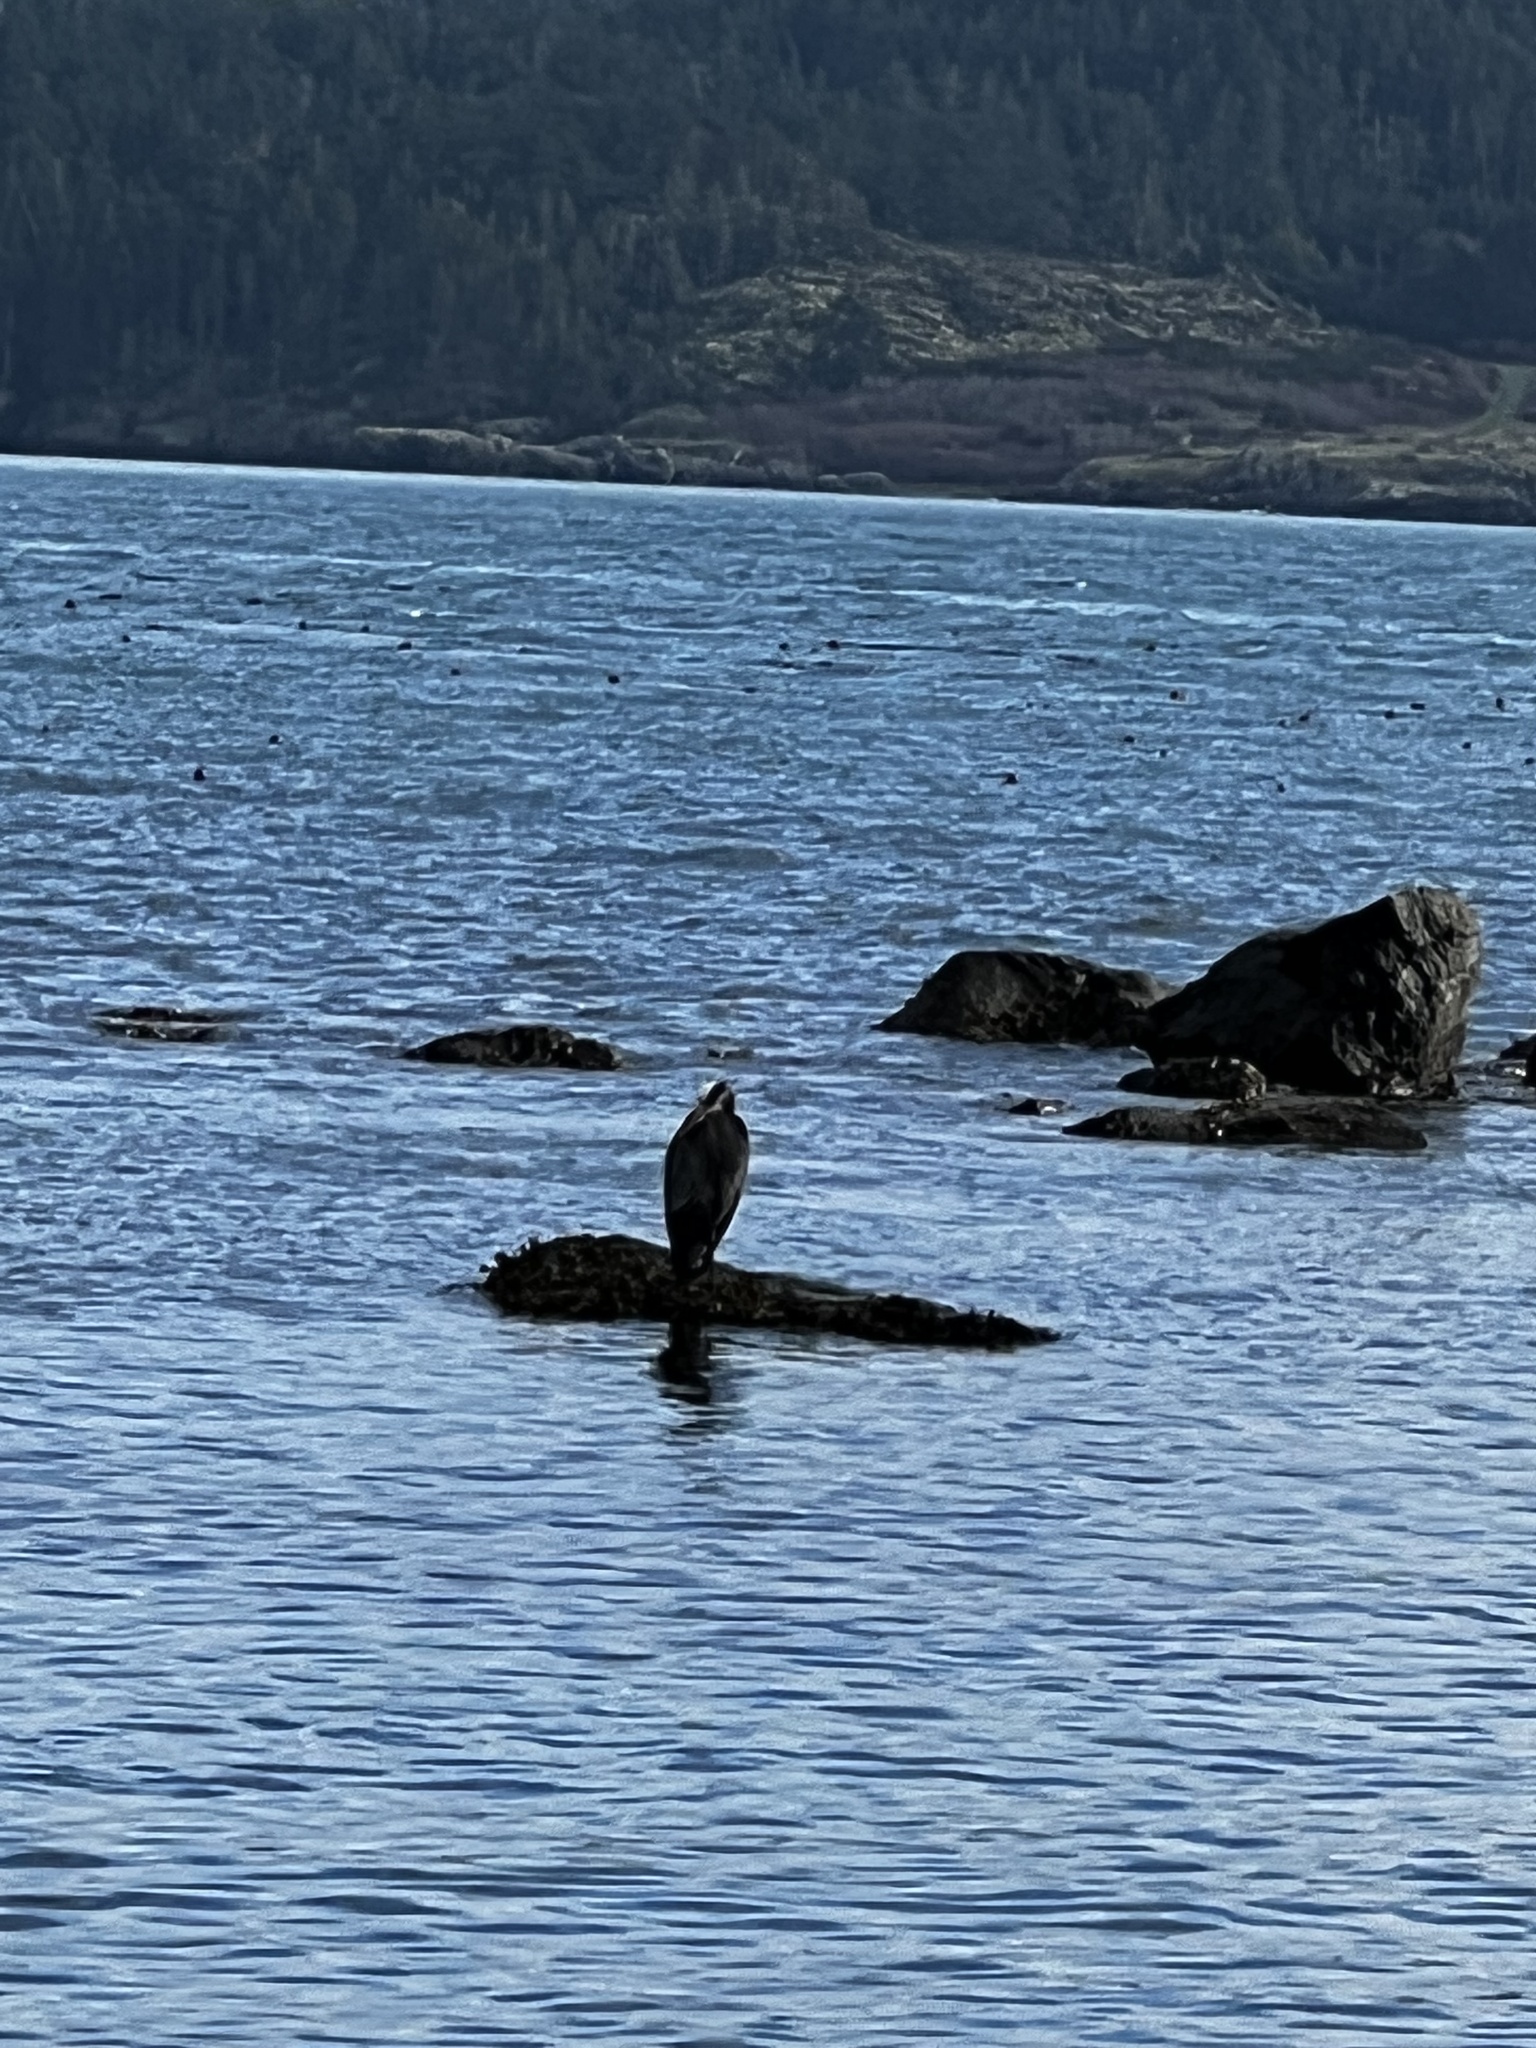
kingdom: Animalia
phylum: Chordata
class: Aves
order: Pelecaniformes
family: Ardeidae
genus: Ardea
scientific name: Ardea herodias
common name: Great blue heron
